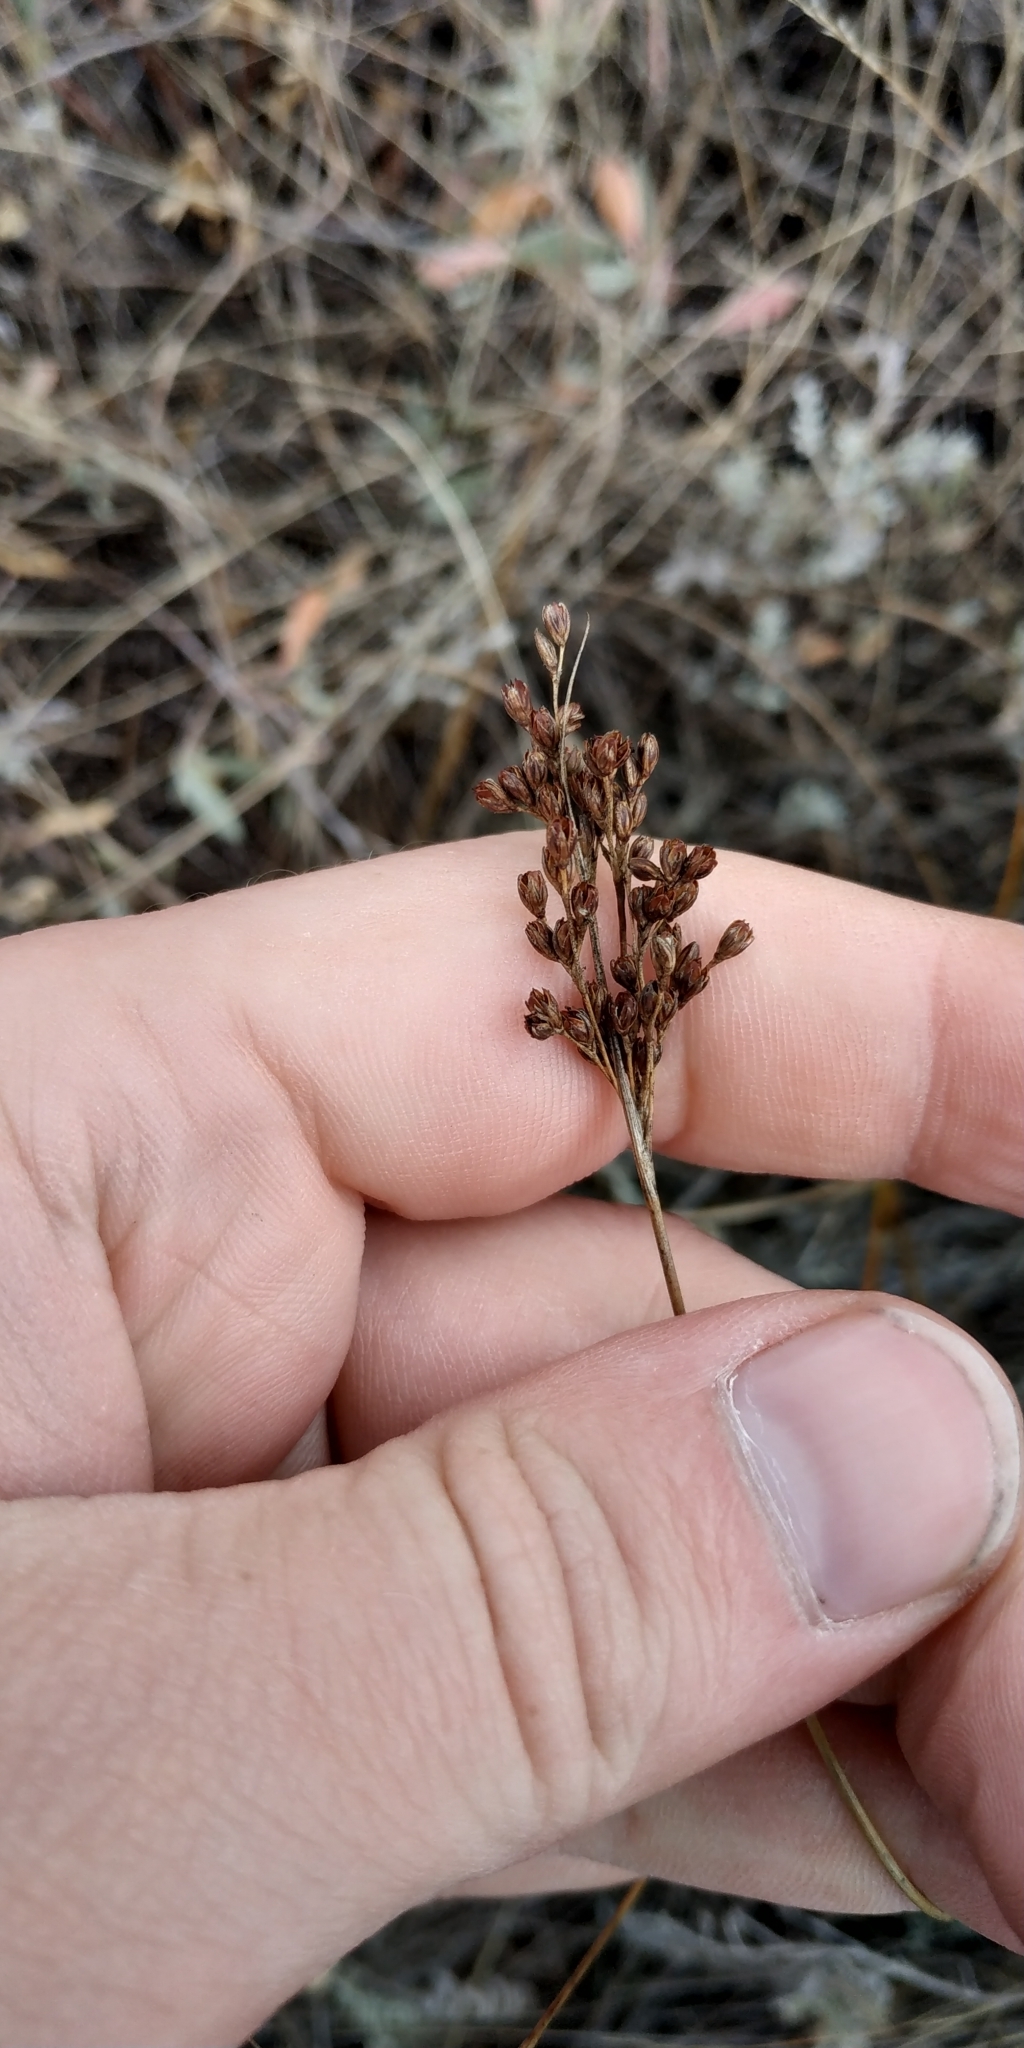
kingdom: Plantae
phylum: Tracheophyta
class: Liliopsida
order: Poales
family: Juncaceae
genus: Juncus
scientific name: Juncus compressus
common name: Round-fruited rush
